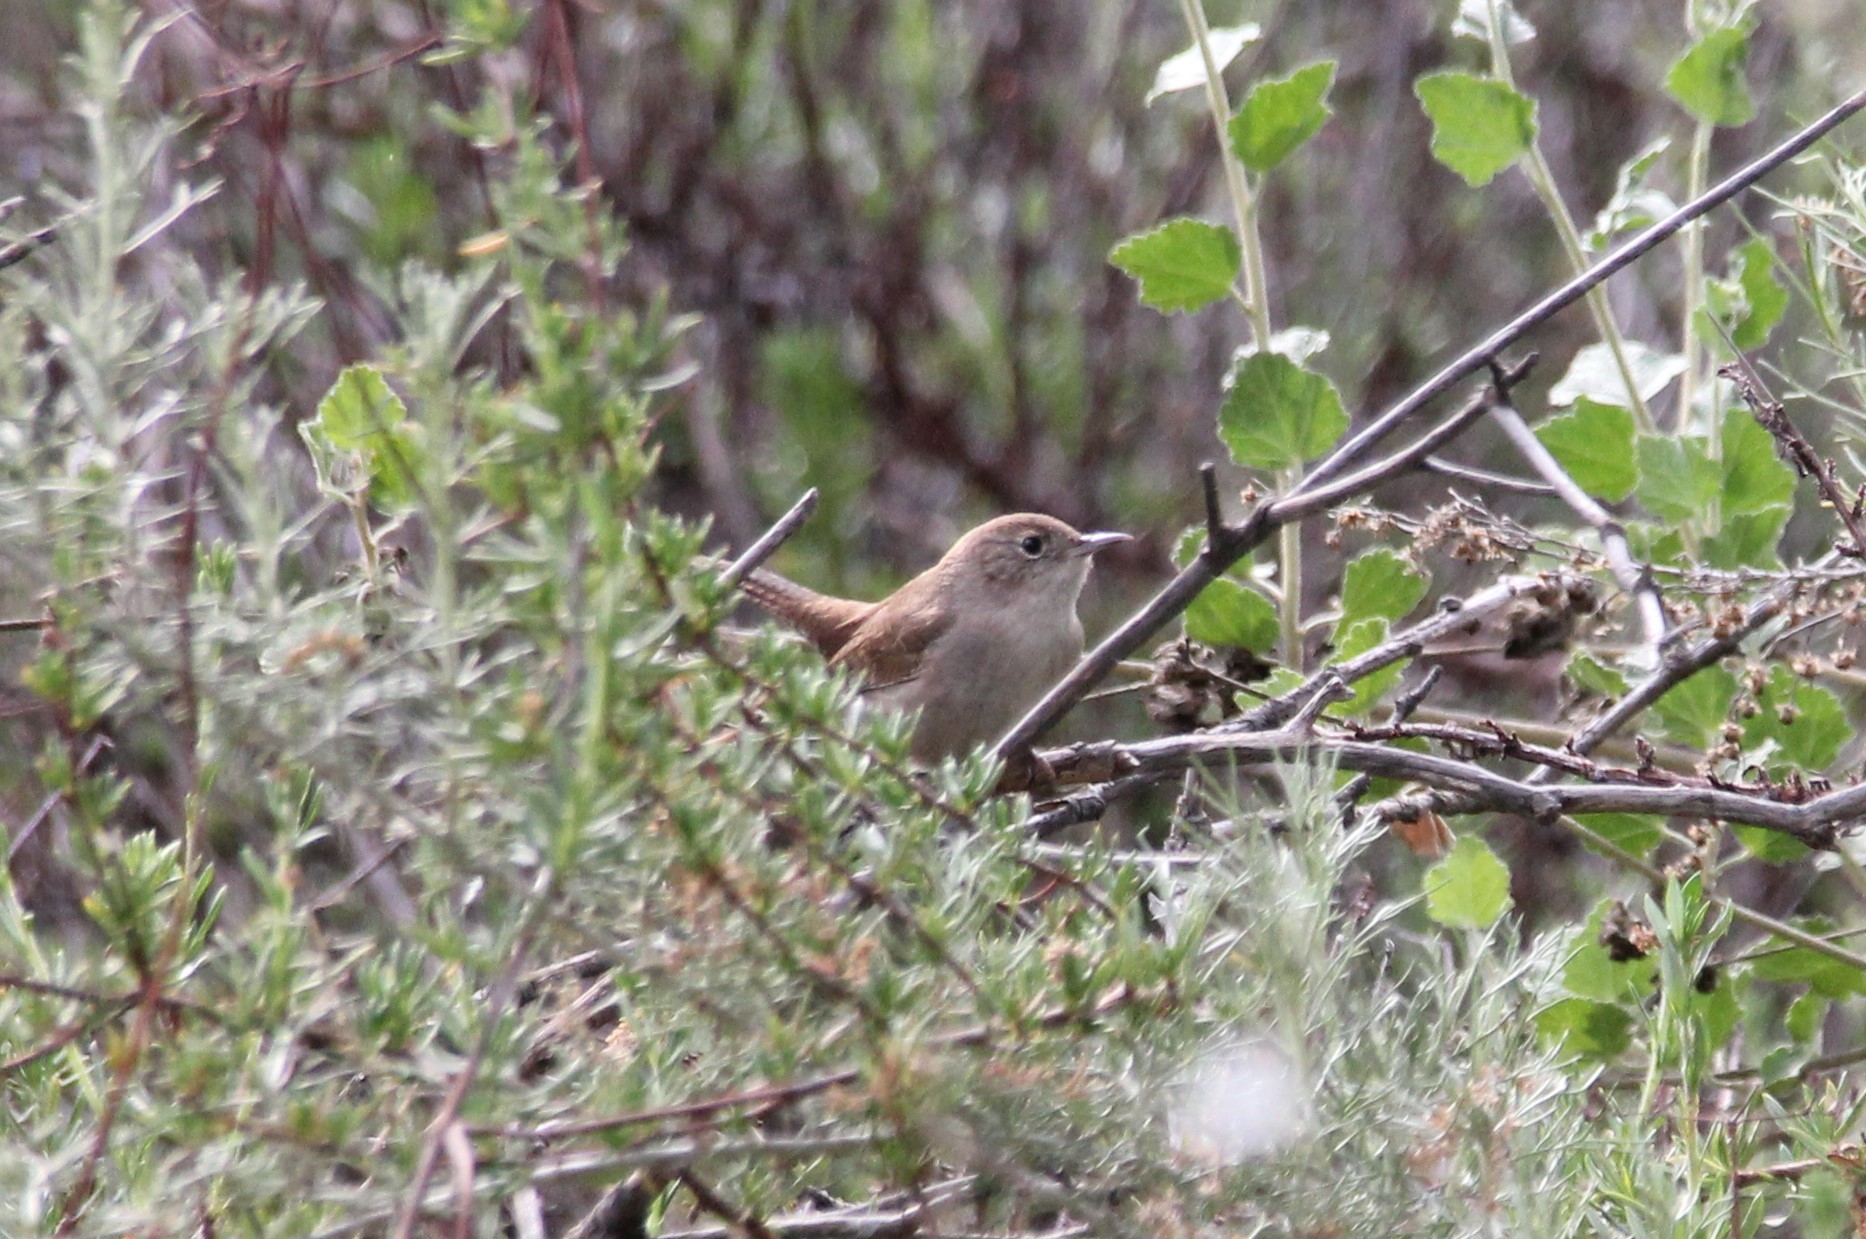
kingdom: Animalia
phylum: Chordata
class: Aves
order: Passeriformes
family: Troglodytidae
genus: Troglodytes
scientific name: Troglodytes aedon
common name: House wren
